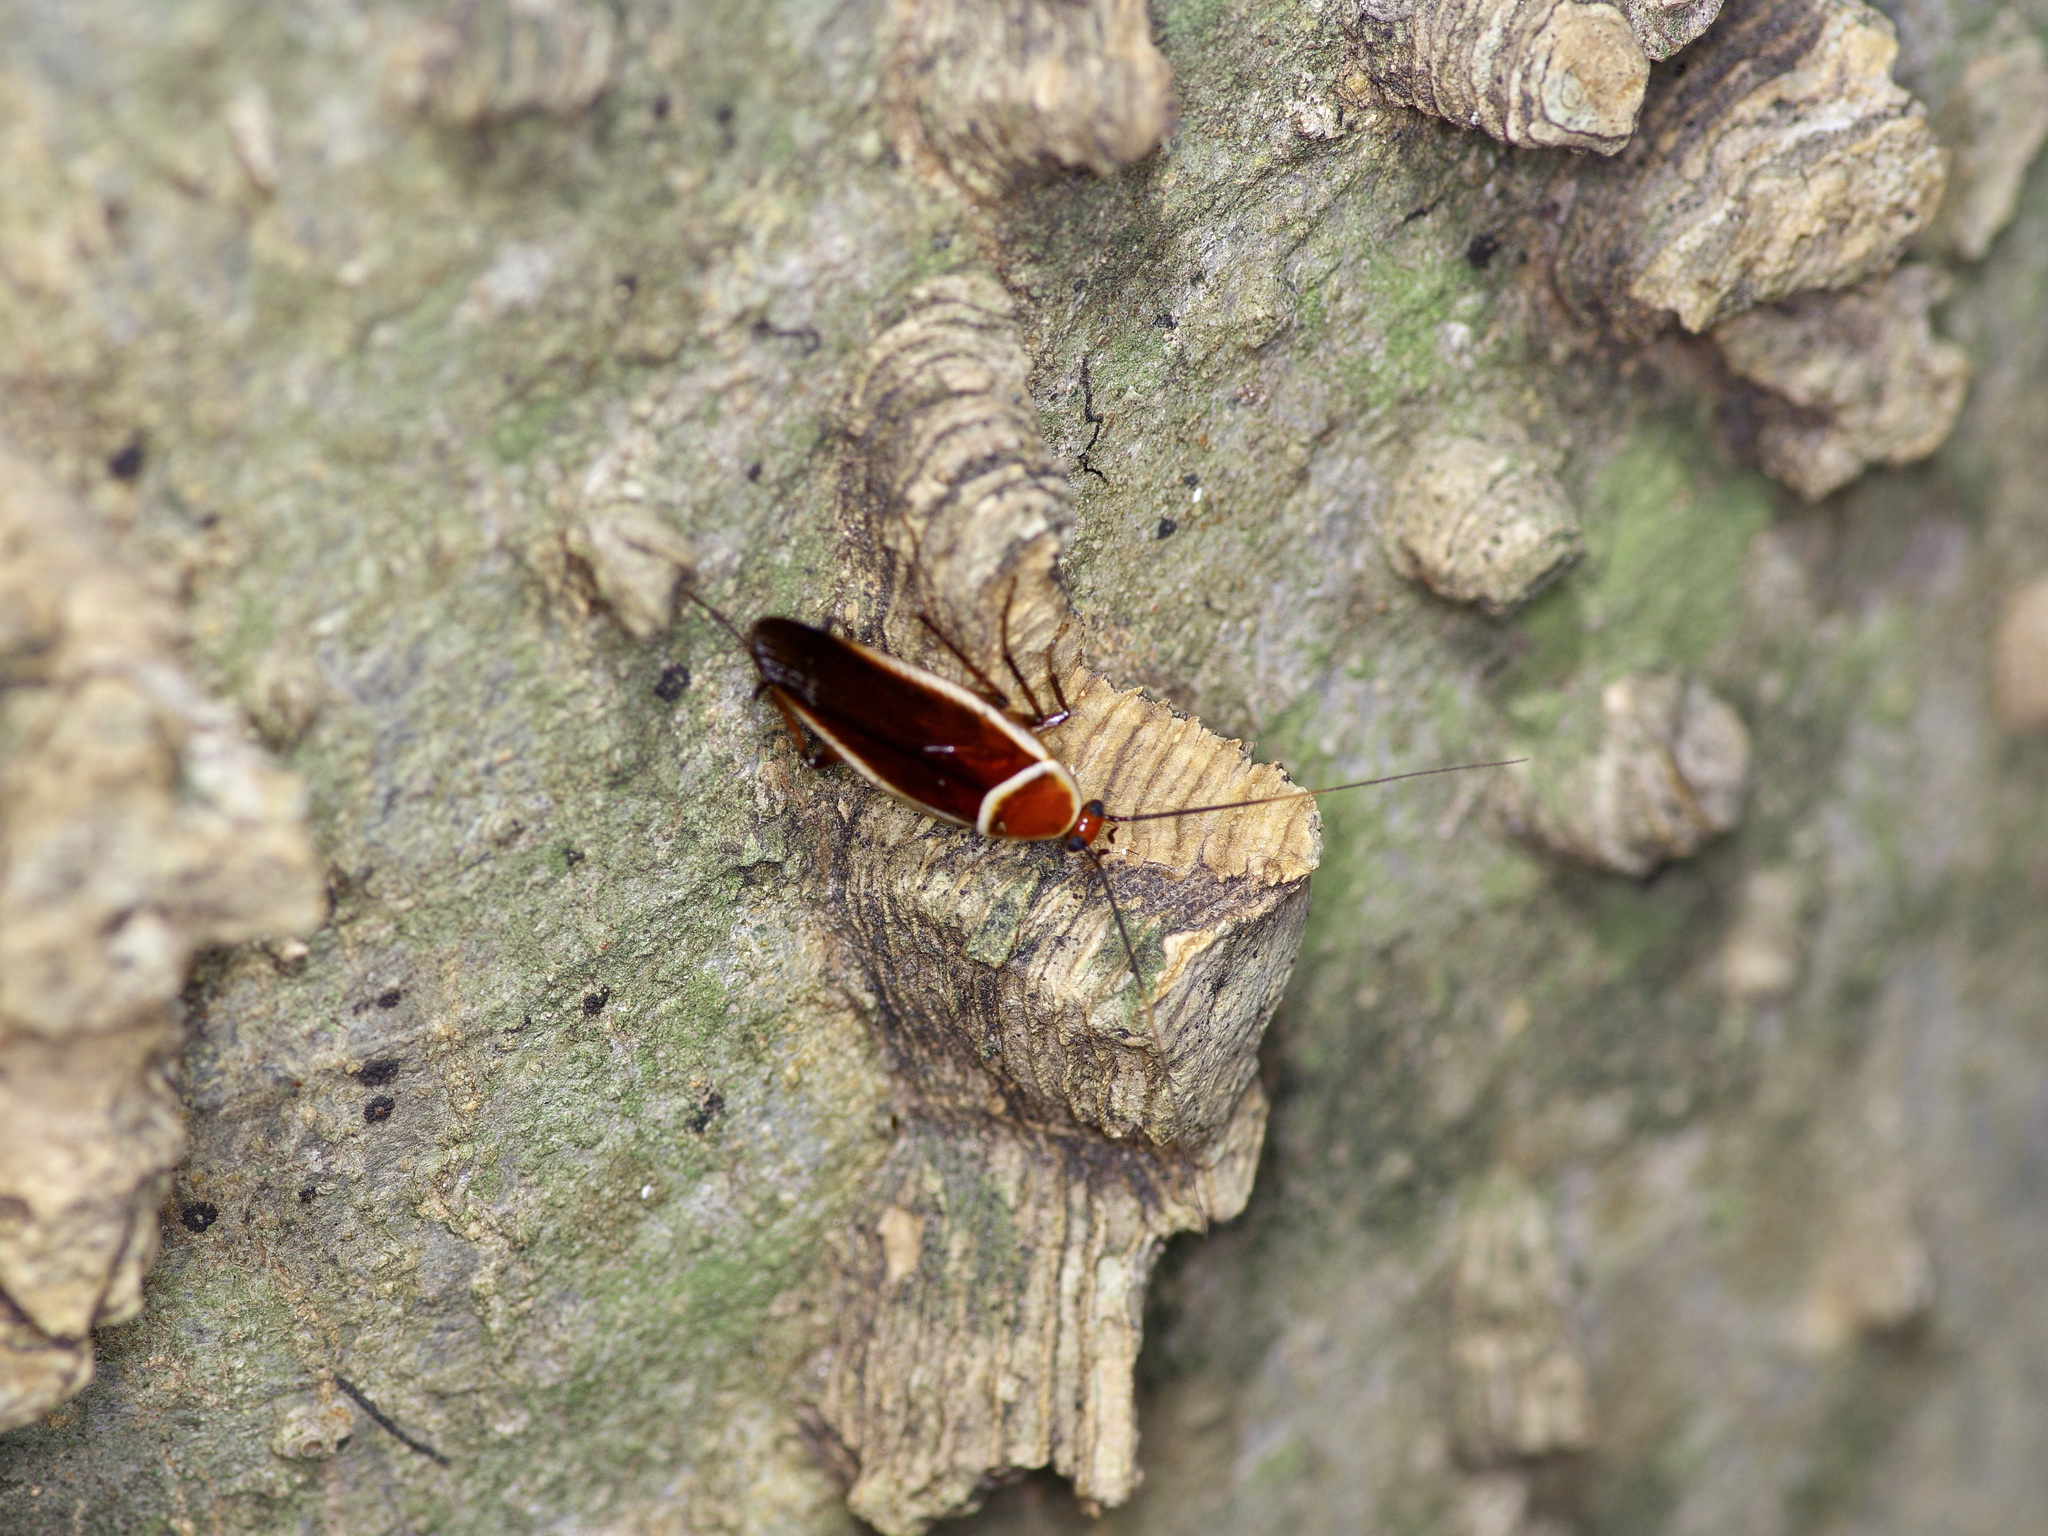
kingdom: Animalia
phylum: Arthropoda
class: Insecta
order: Blattodea
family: Ectobiidae
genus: Pseudomops
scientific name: Pseudomops septentrionalis
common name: Pale-bordered field cockroach
